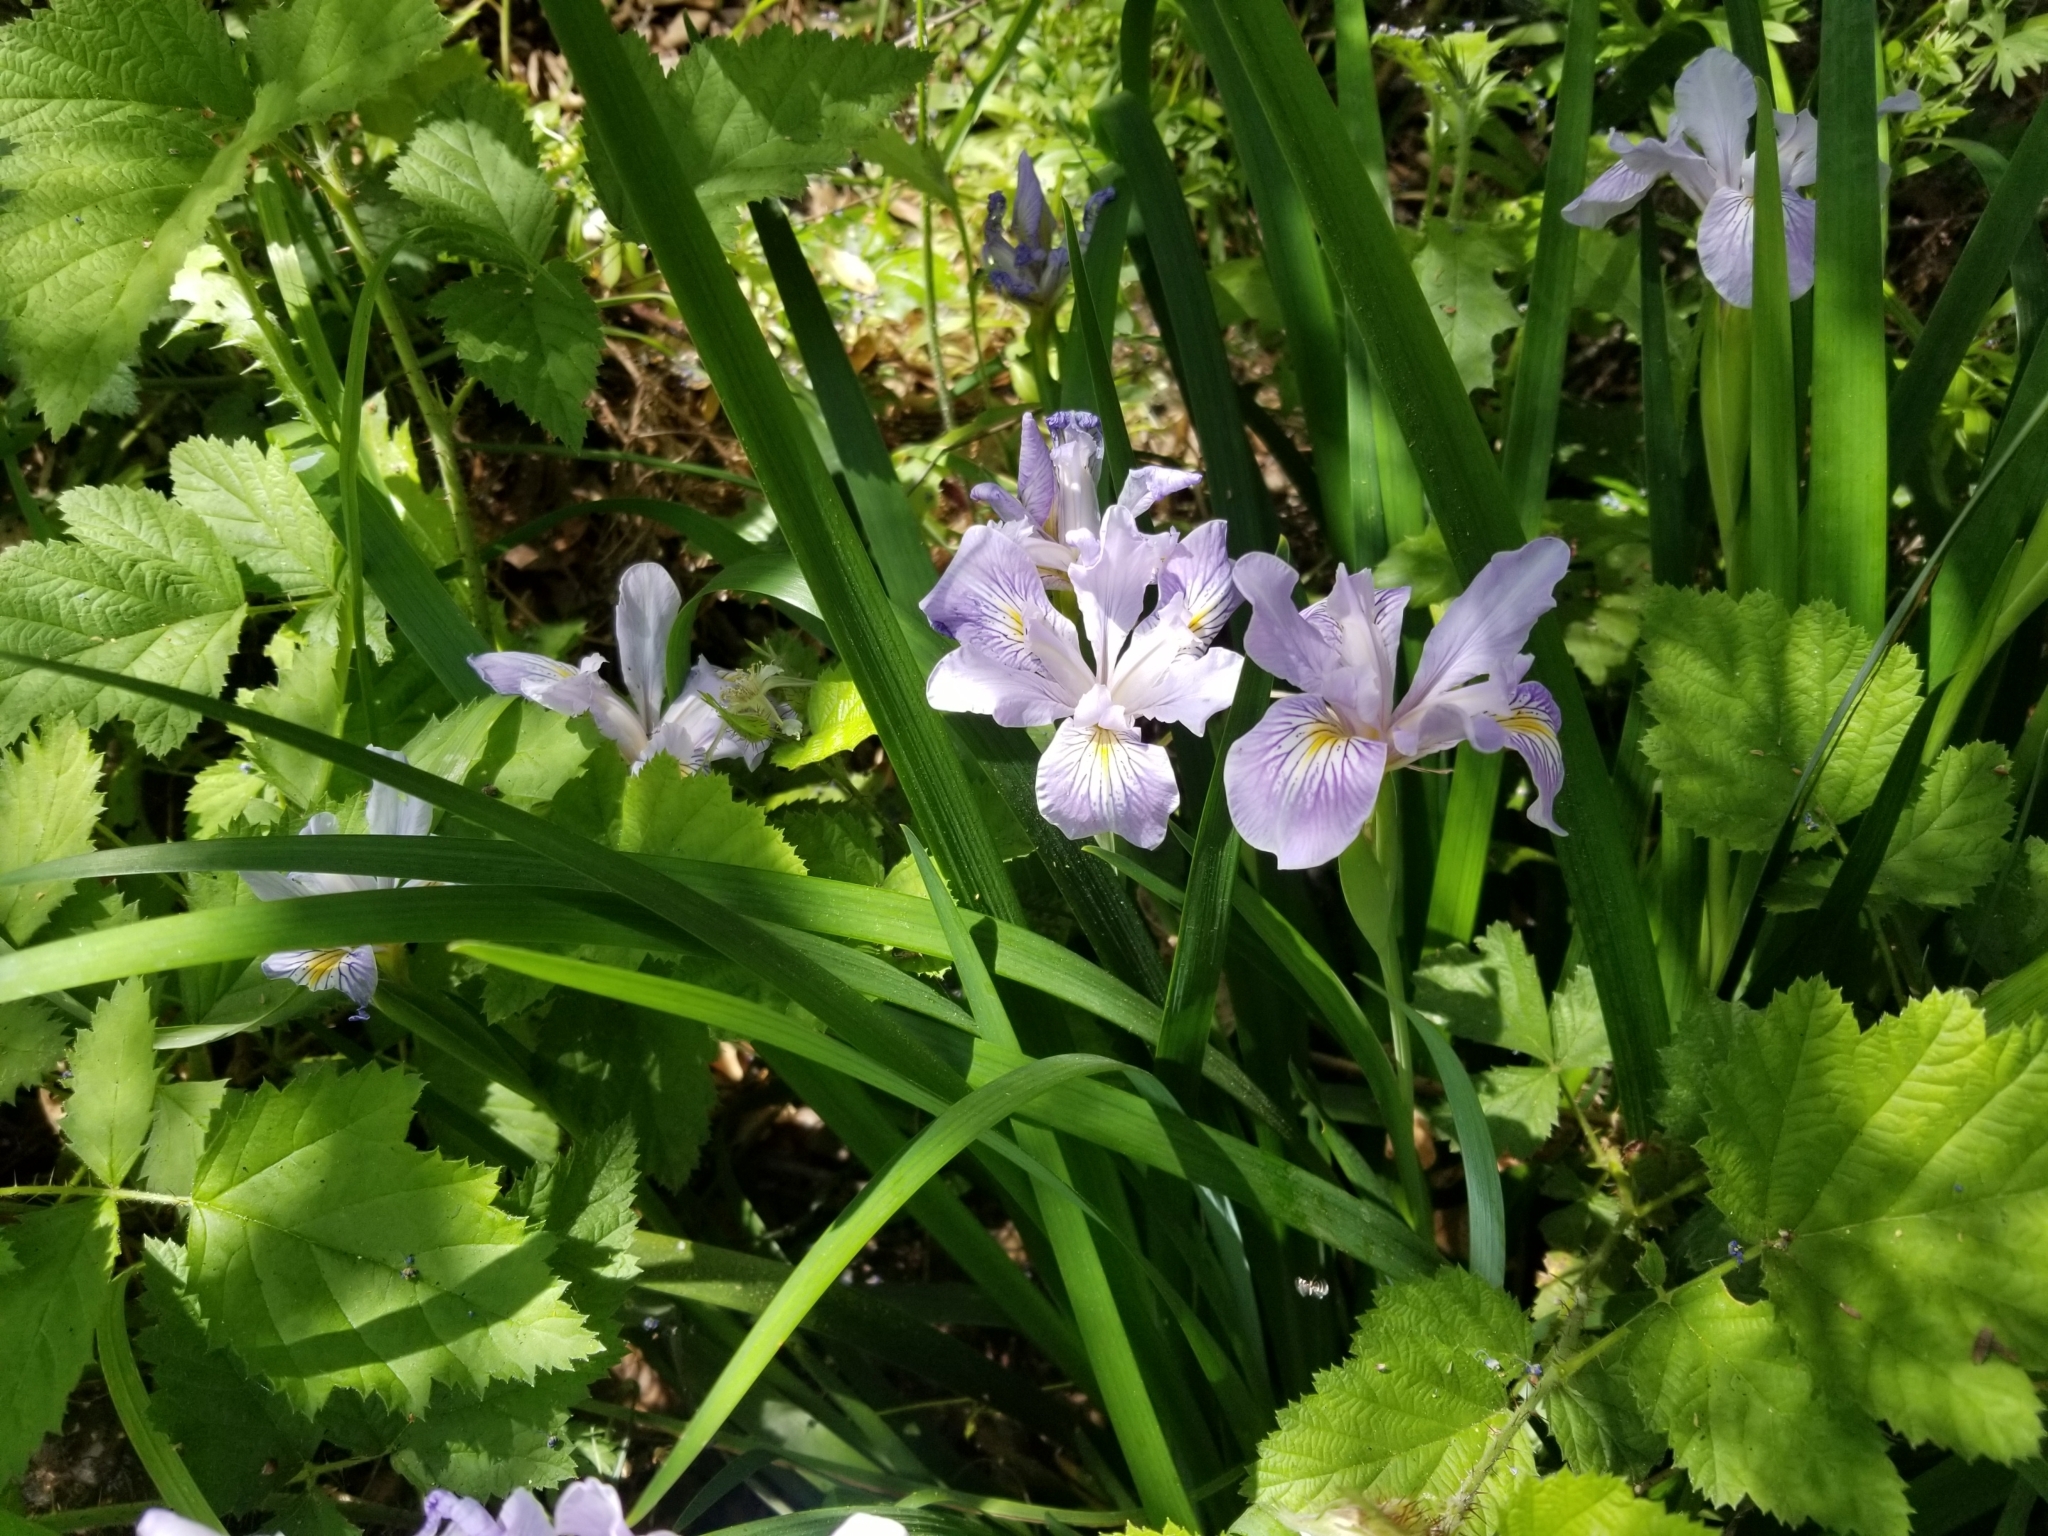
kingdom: Plantae
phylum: Tracheophyta
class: Liliopsida
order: Asparagales
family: Iridaceae
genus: Iris
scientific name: Iris douglasiana
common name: Marin iris
